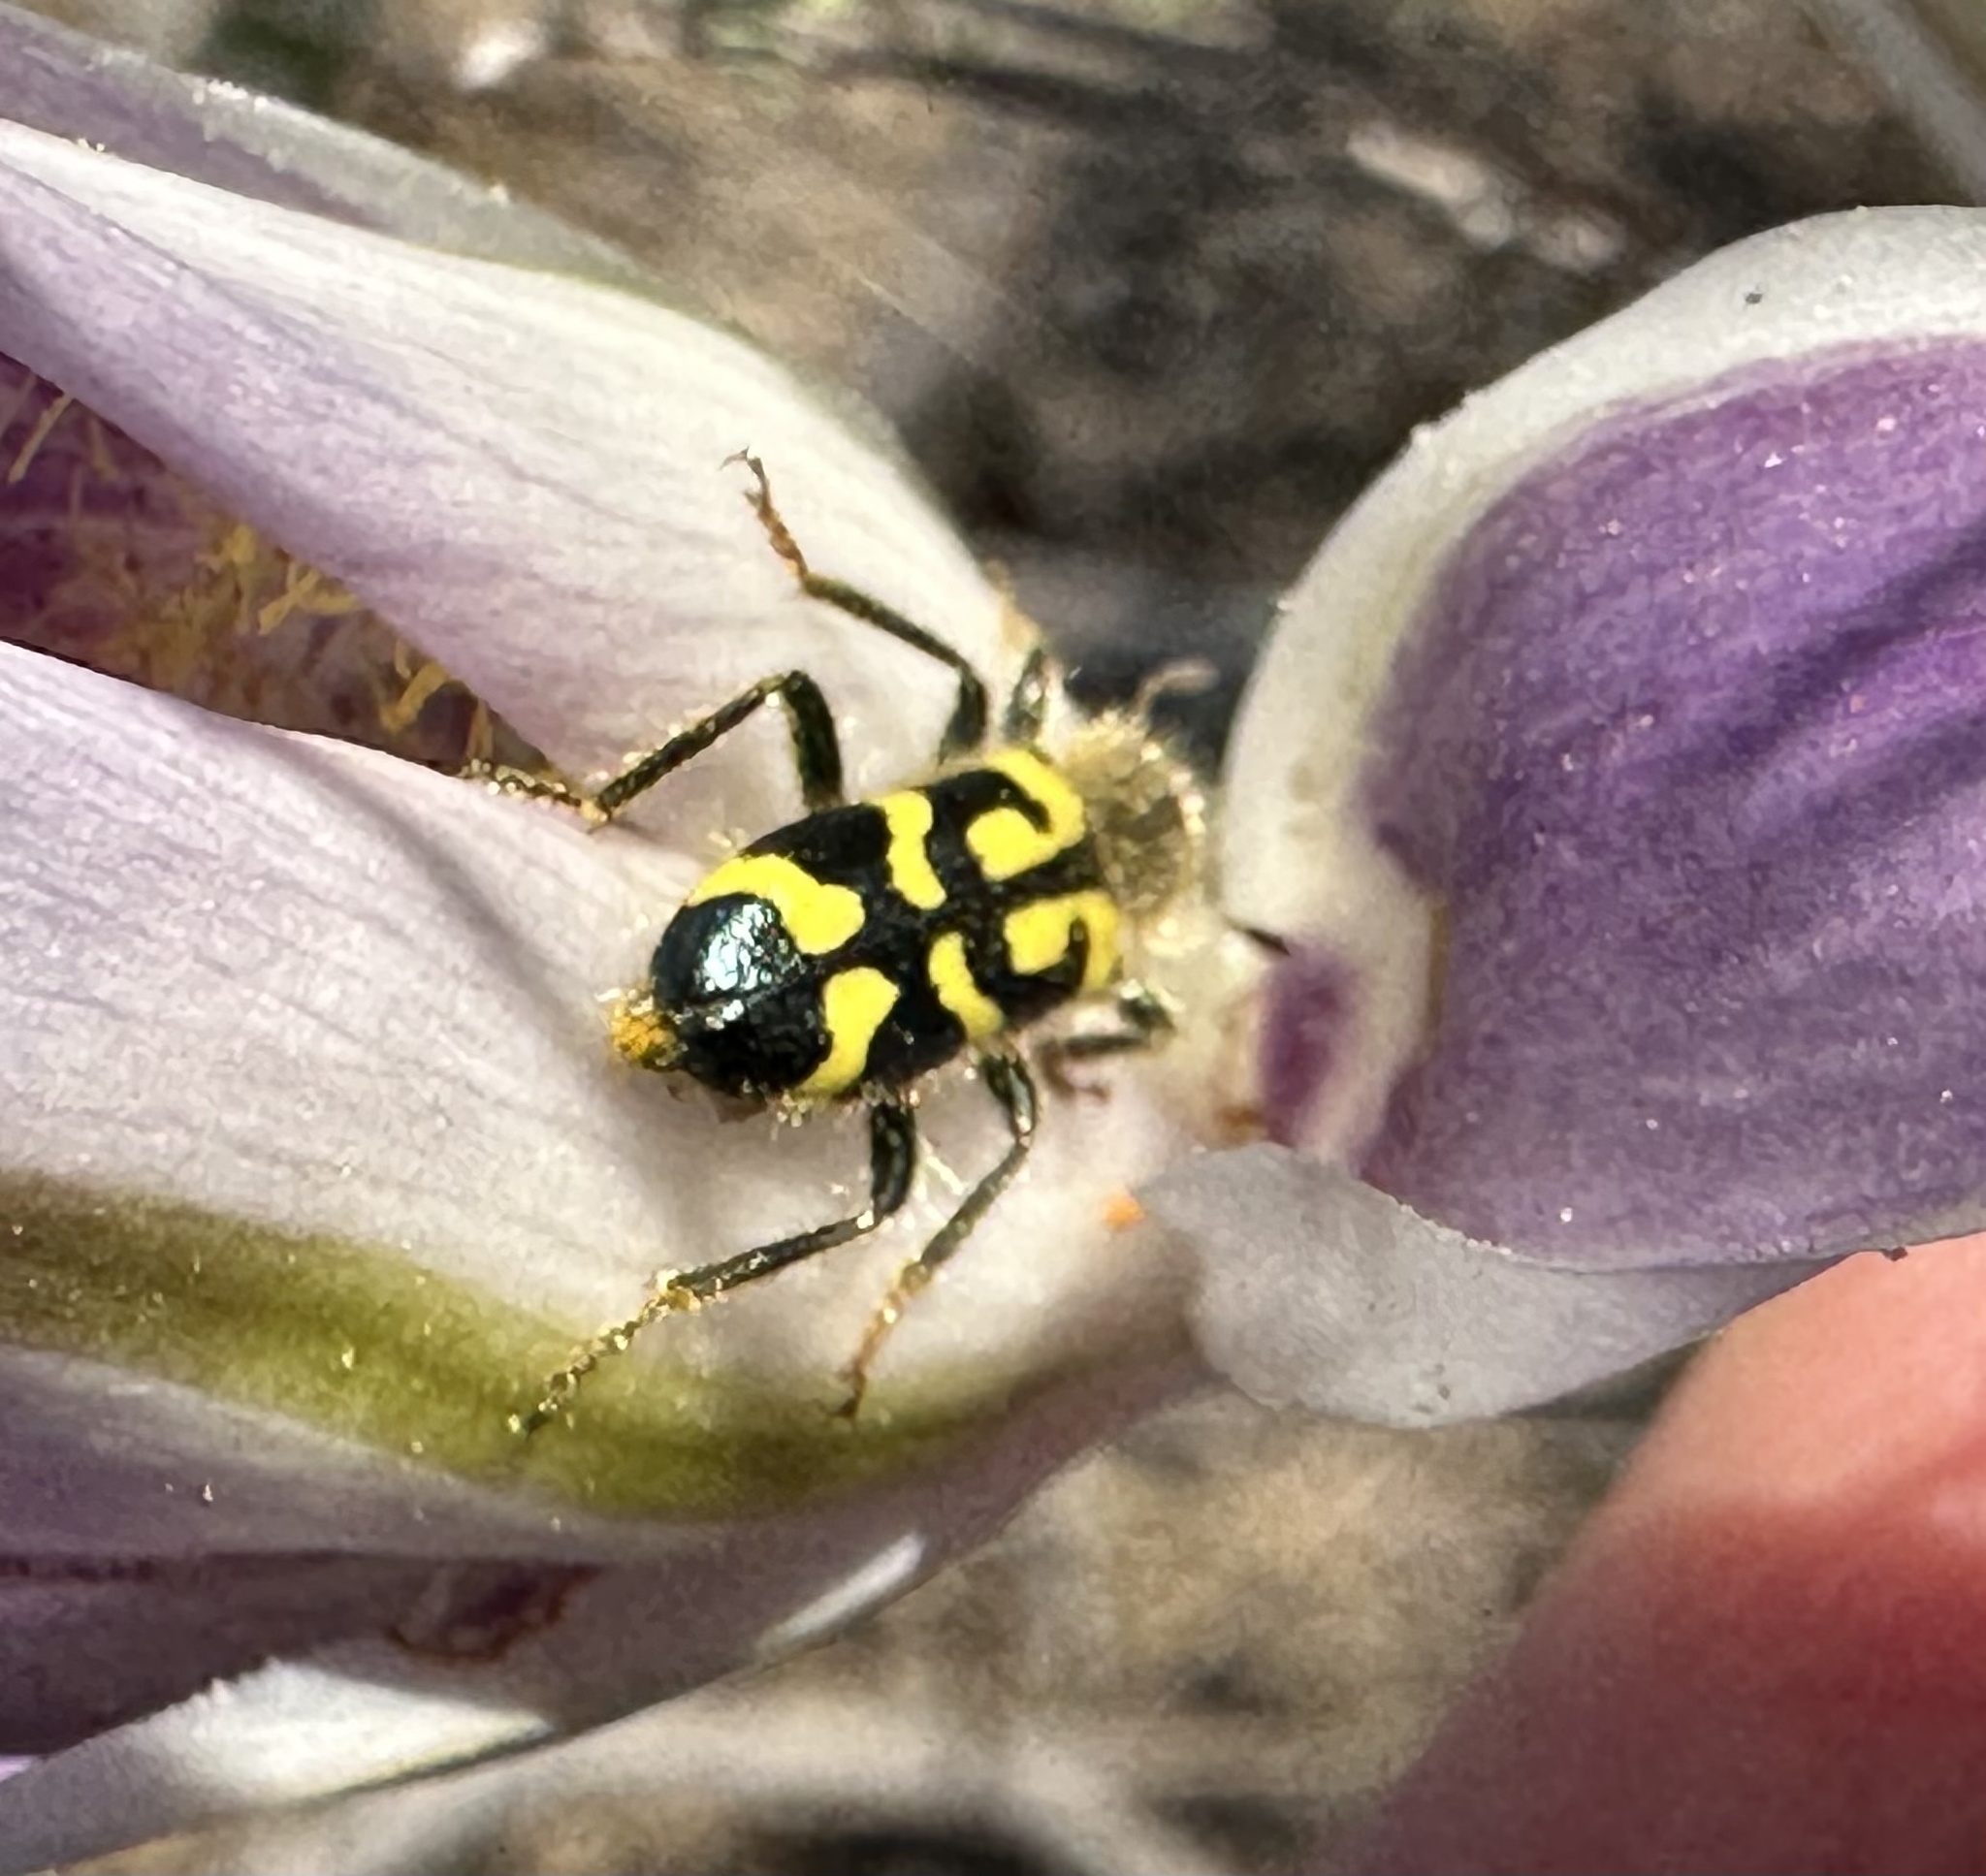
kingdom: Animalia
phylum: Arthropoda
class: Insecta
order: Coleoptera
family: Cleridae
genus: Trichodes
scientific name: Trichodes ornatus
